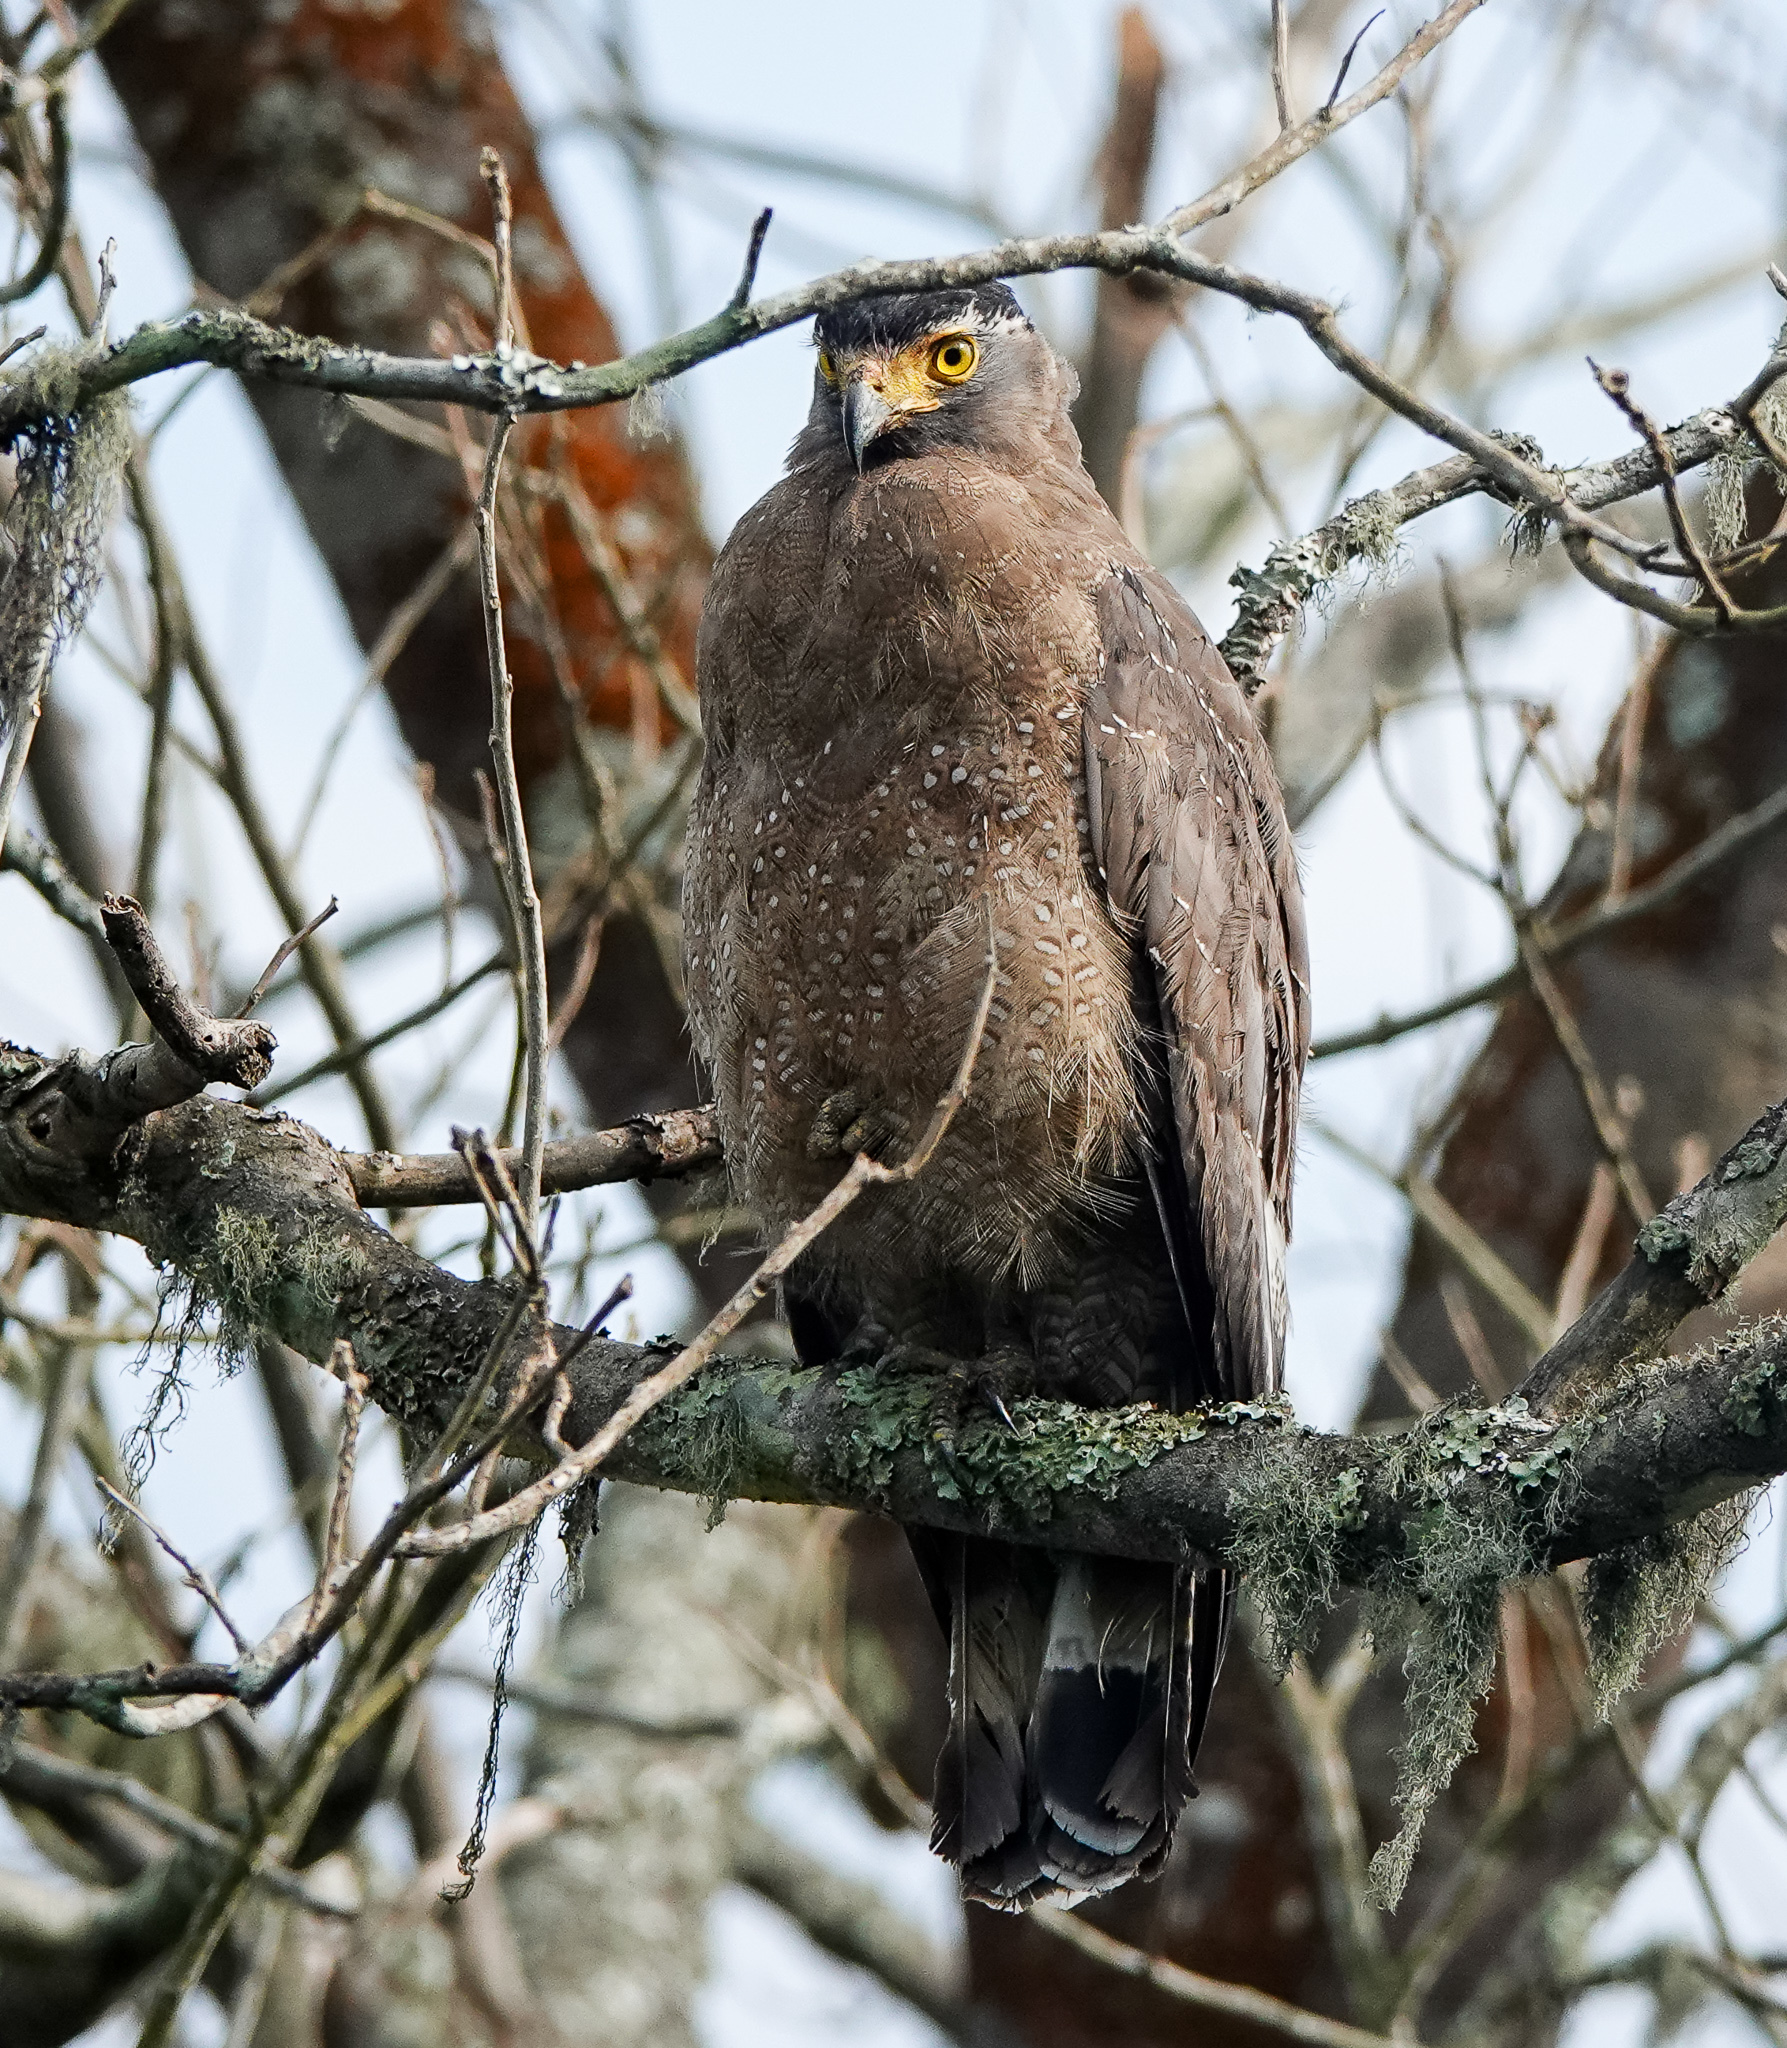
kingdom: Animalia
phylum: Chordata
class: Aves
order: Accipitriformes
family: Accipitridae
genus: Spilornis
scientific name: Spilornis cheela
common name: Crested serpent eagle
